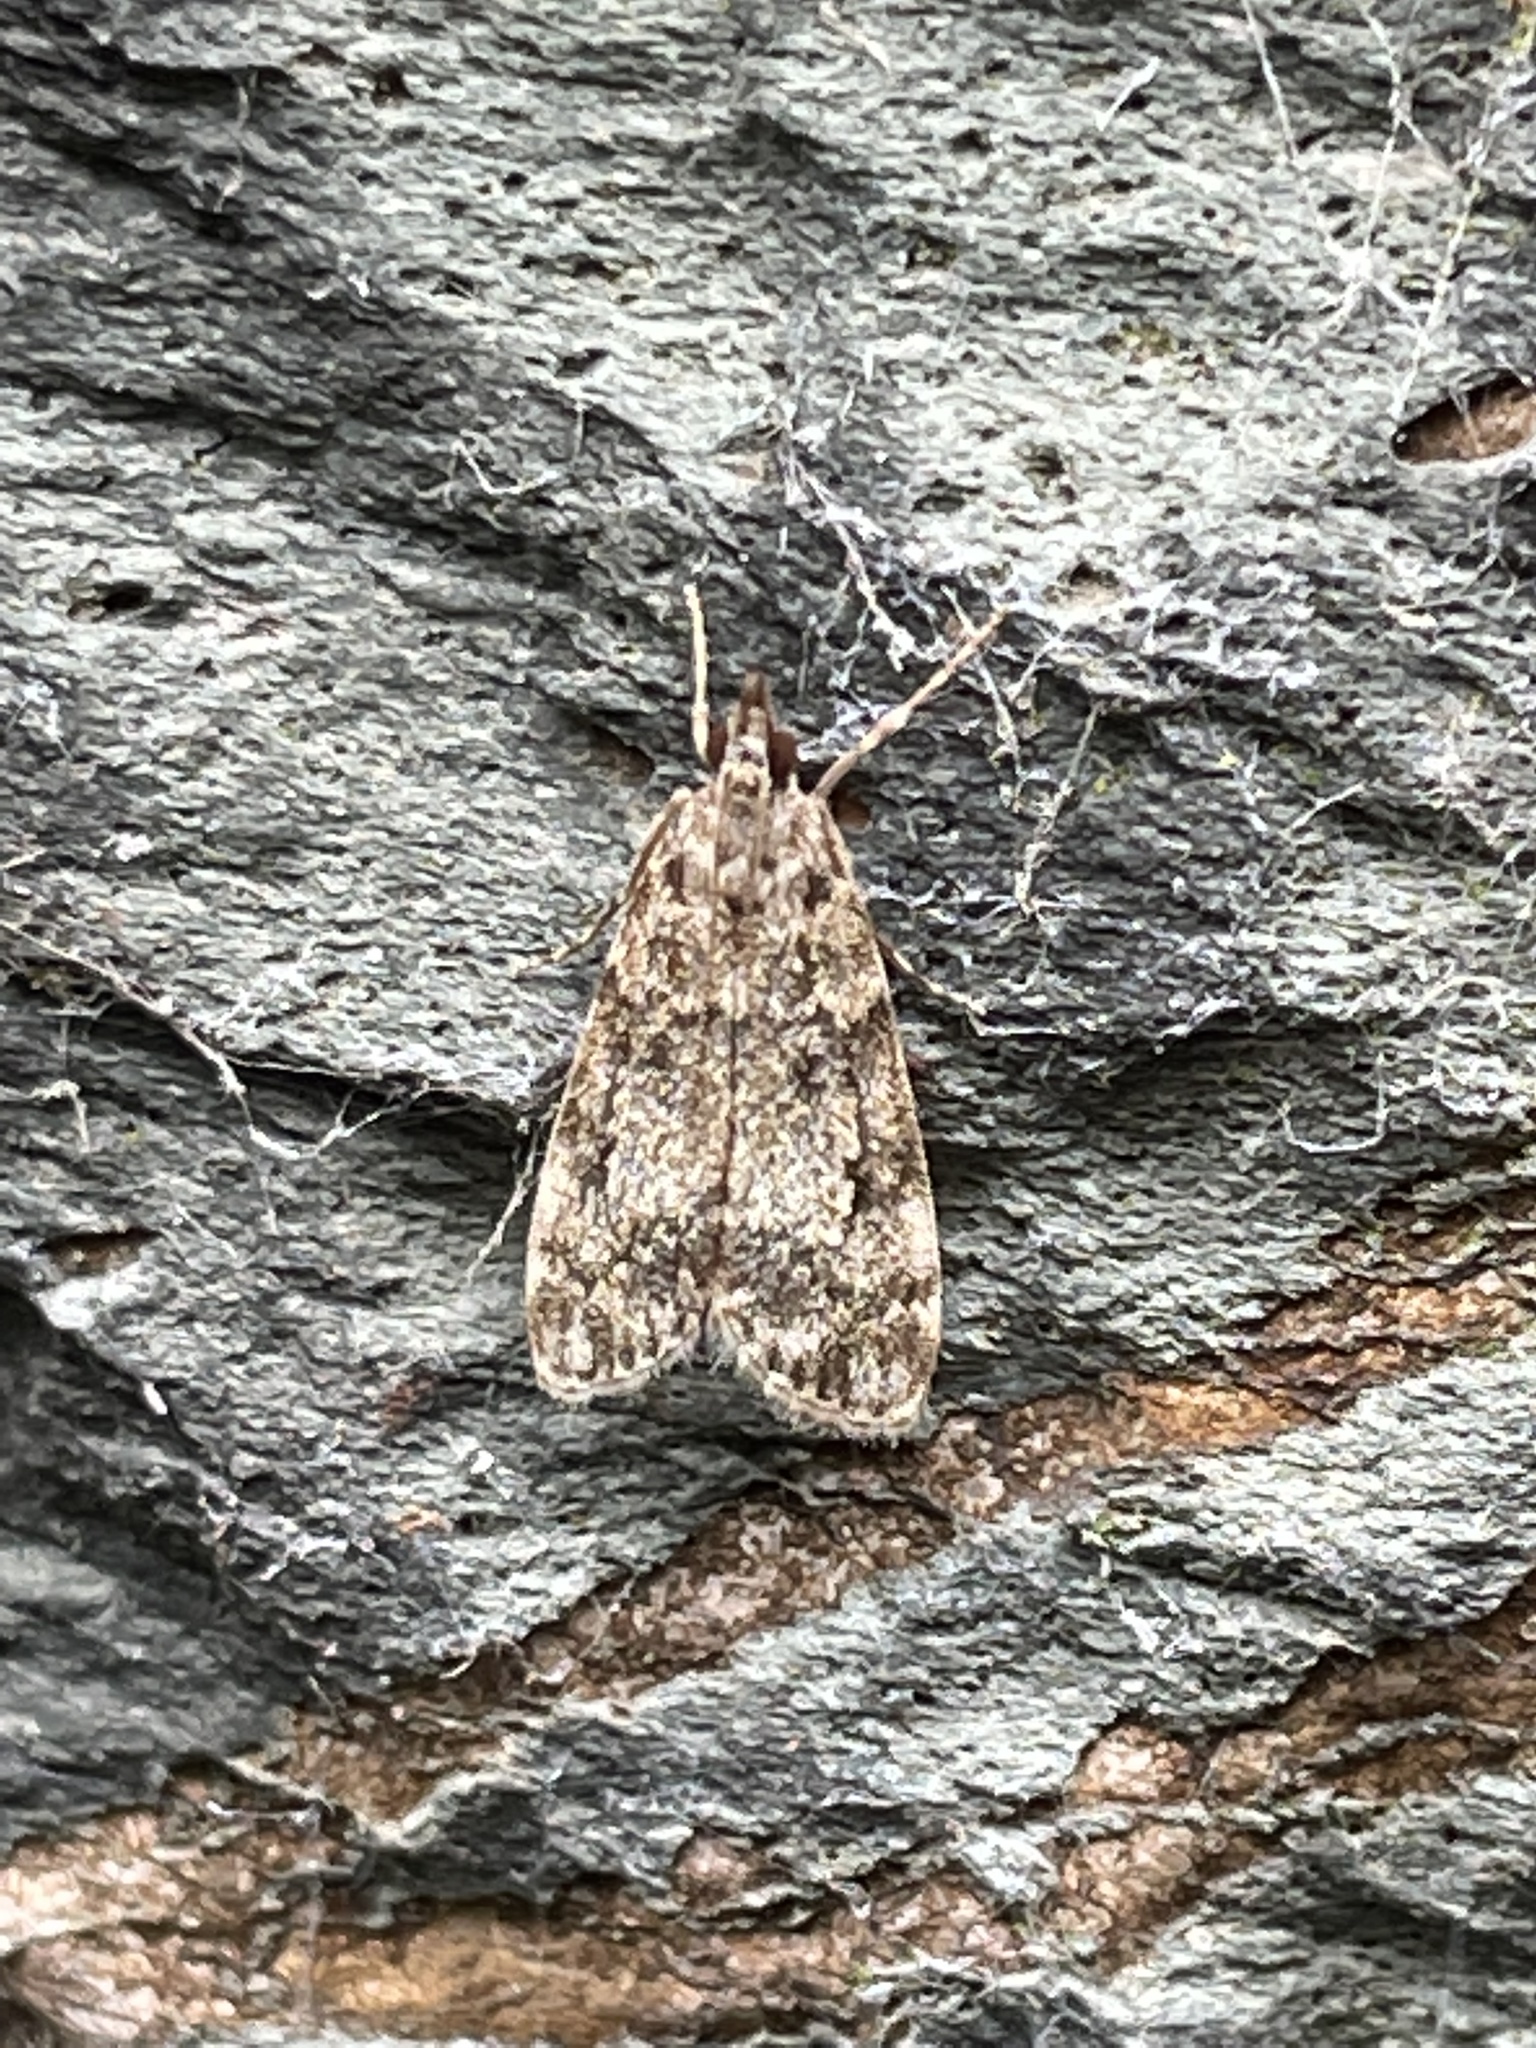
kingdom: Animalia
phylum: Arthropoda
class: Insecta
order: Lepidoptera
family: Crambidae
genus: Eudonia
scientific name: Eudonia lacustrata
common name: Little grey
